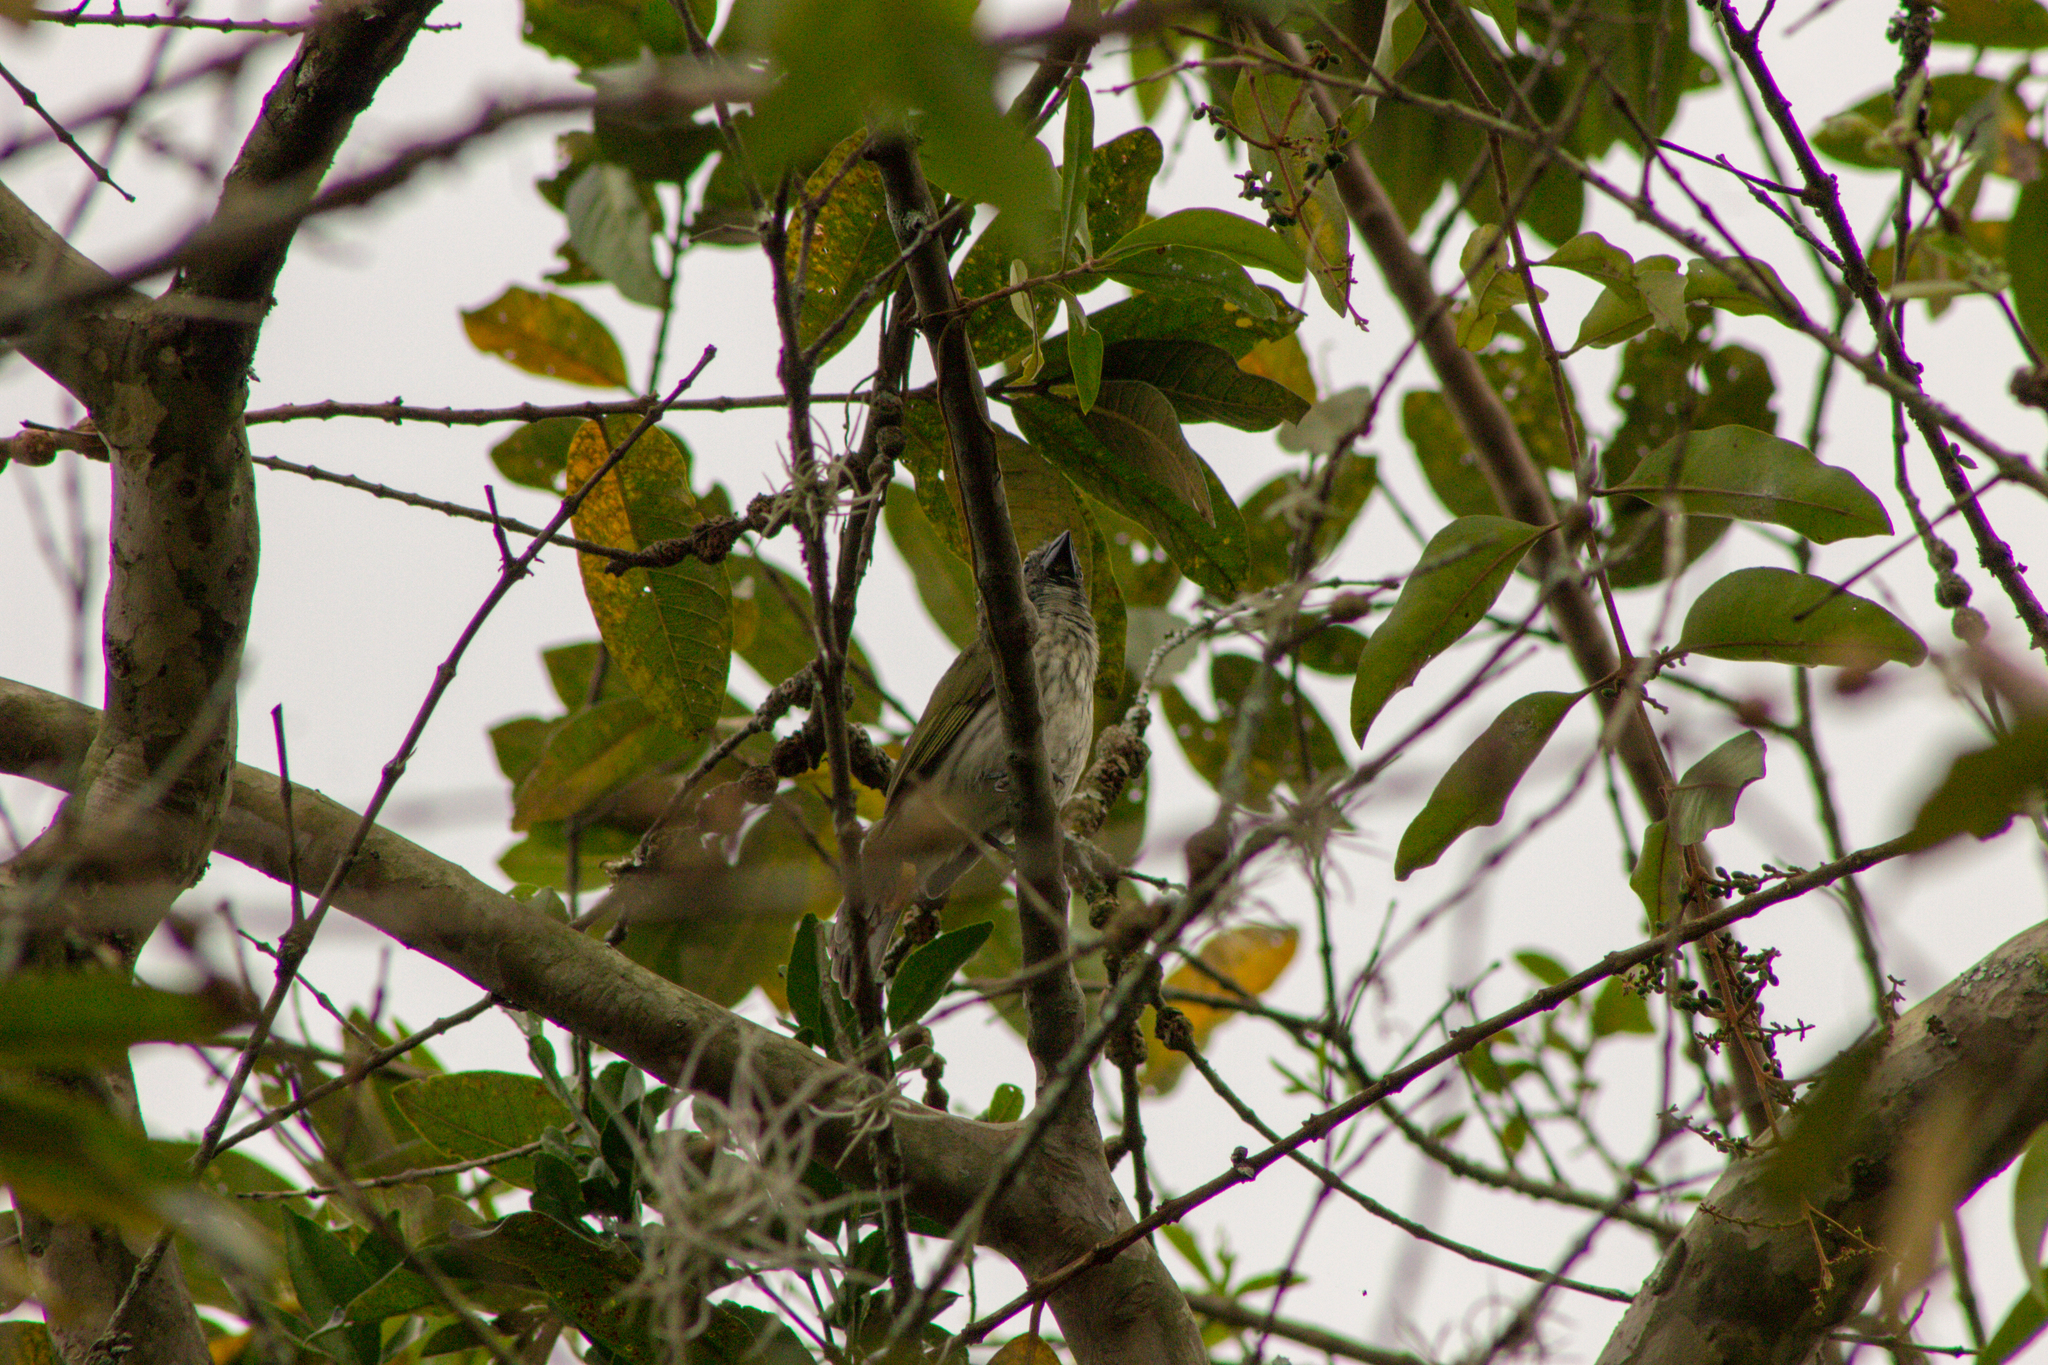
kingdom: Animalia
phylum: Chordata
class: Aves
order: Passeriformes
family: Thraupidae
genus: Saltator
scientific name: Saltator striatipectus
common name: Streaked saltator
